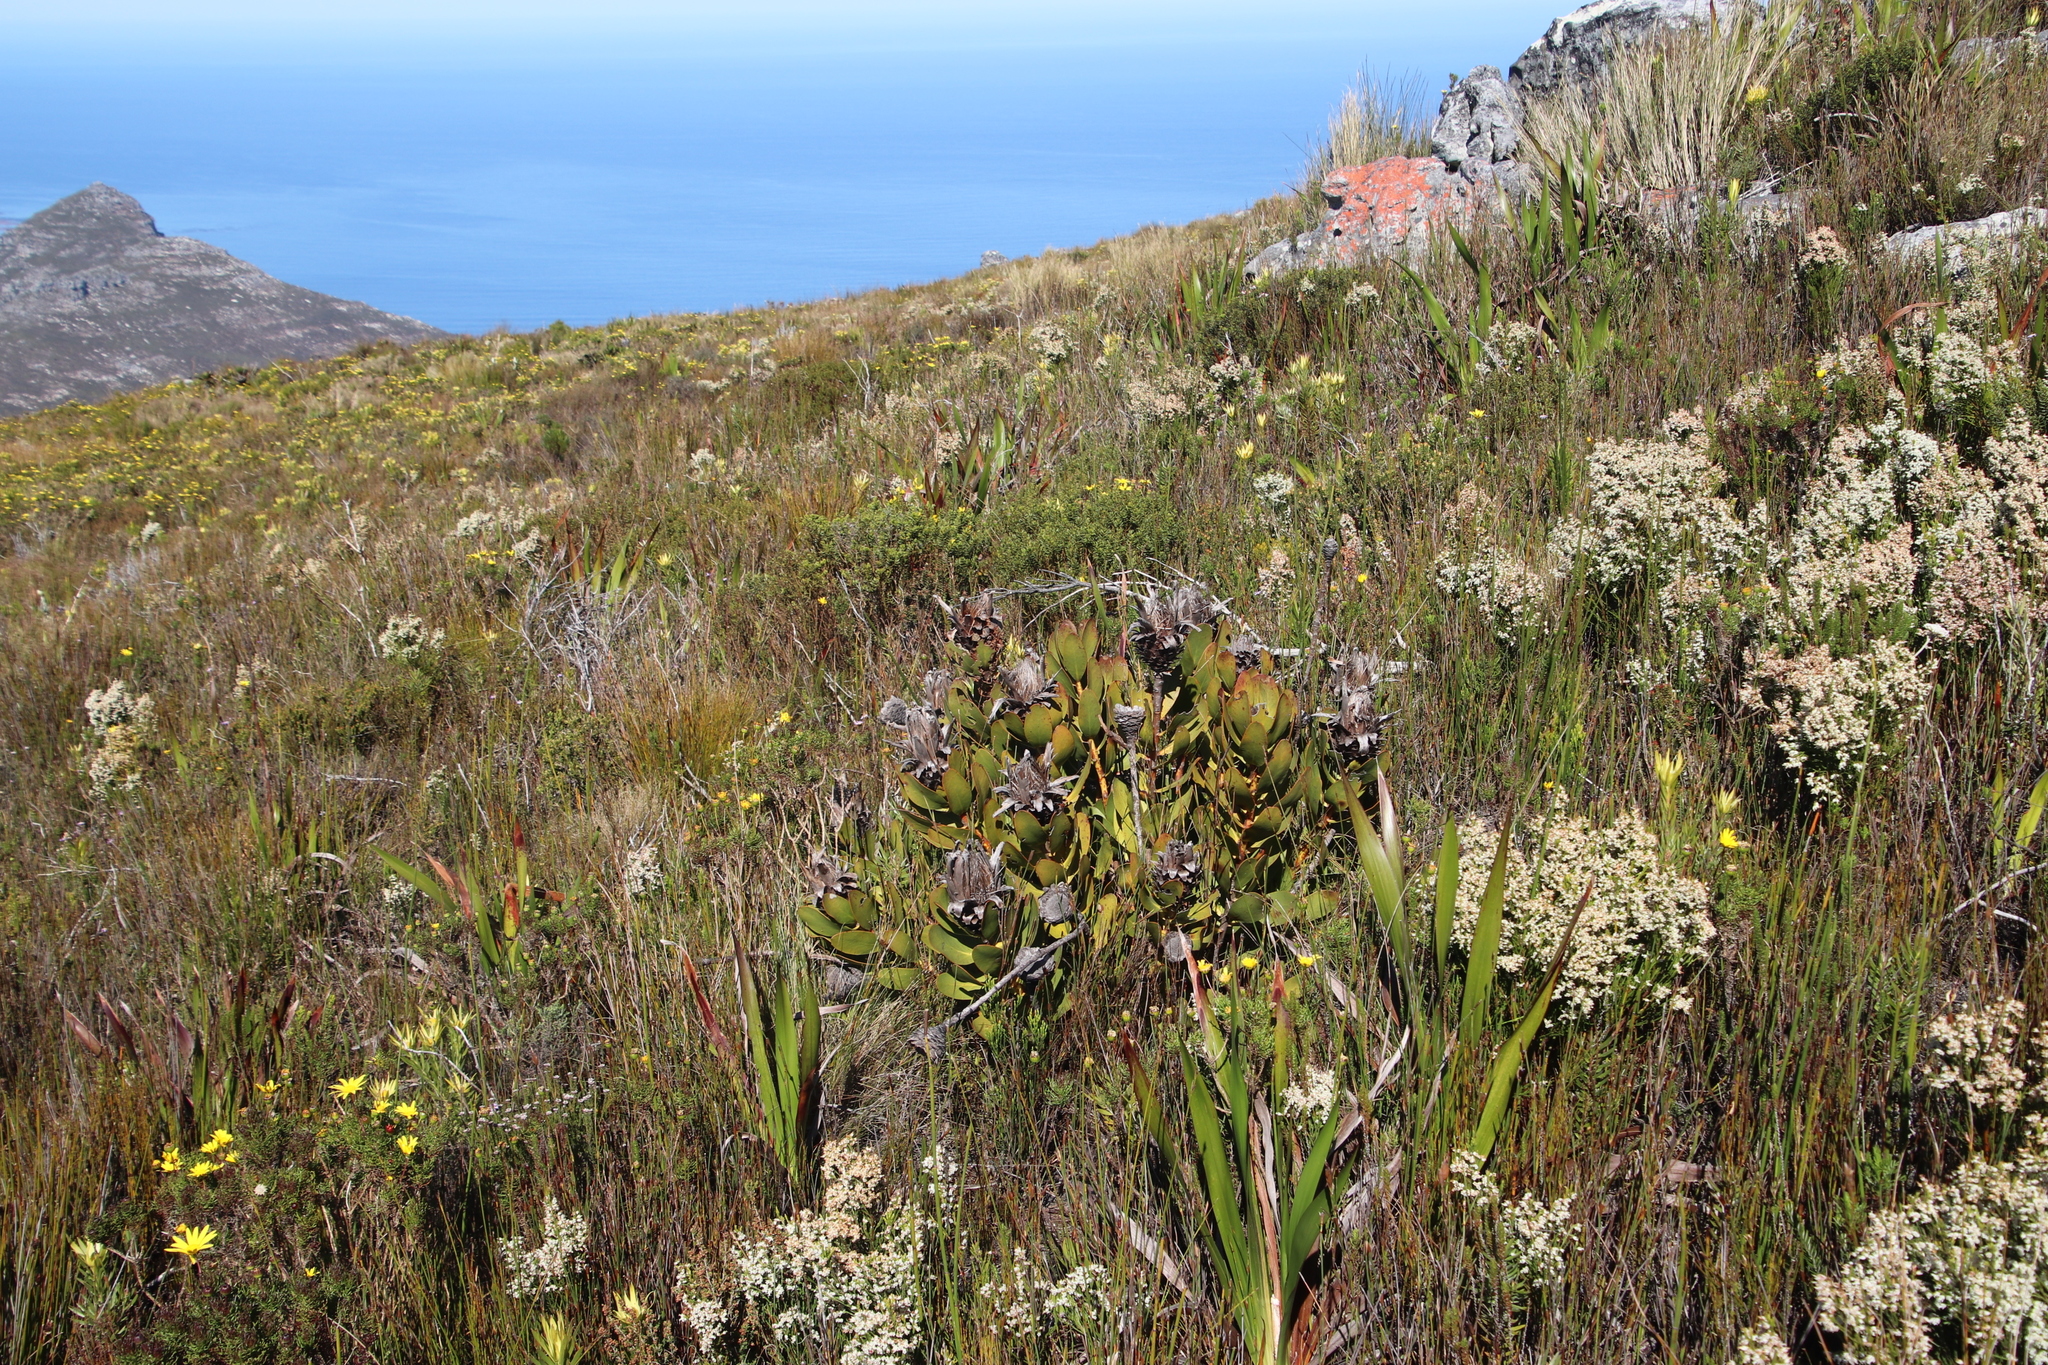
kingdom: Plantae
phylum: Tracheophyta
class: Magnoliopsida
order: Proteales
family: Proteaceae
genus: Protea
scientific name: Protea speciosa
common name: Brown-beard sugarbush
